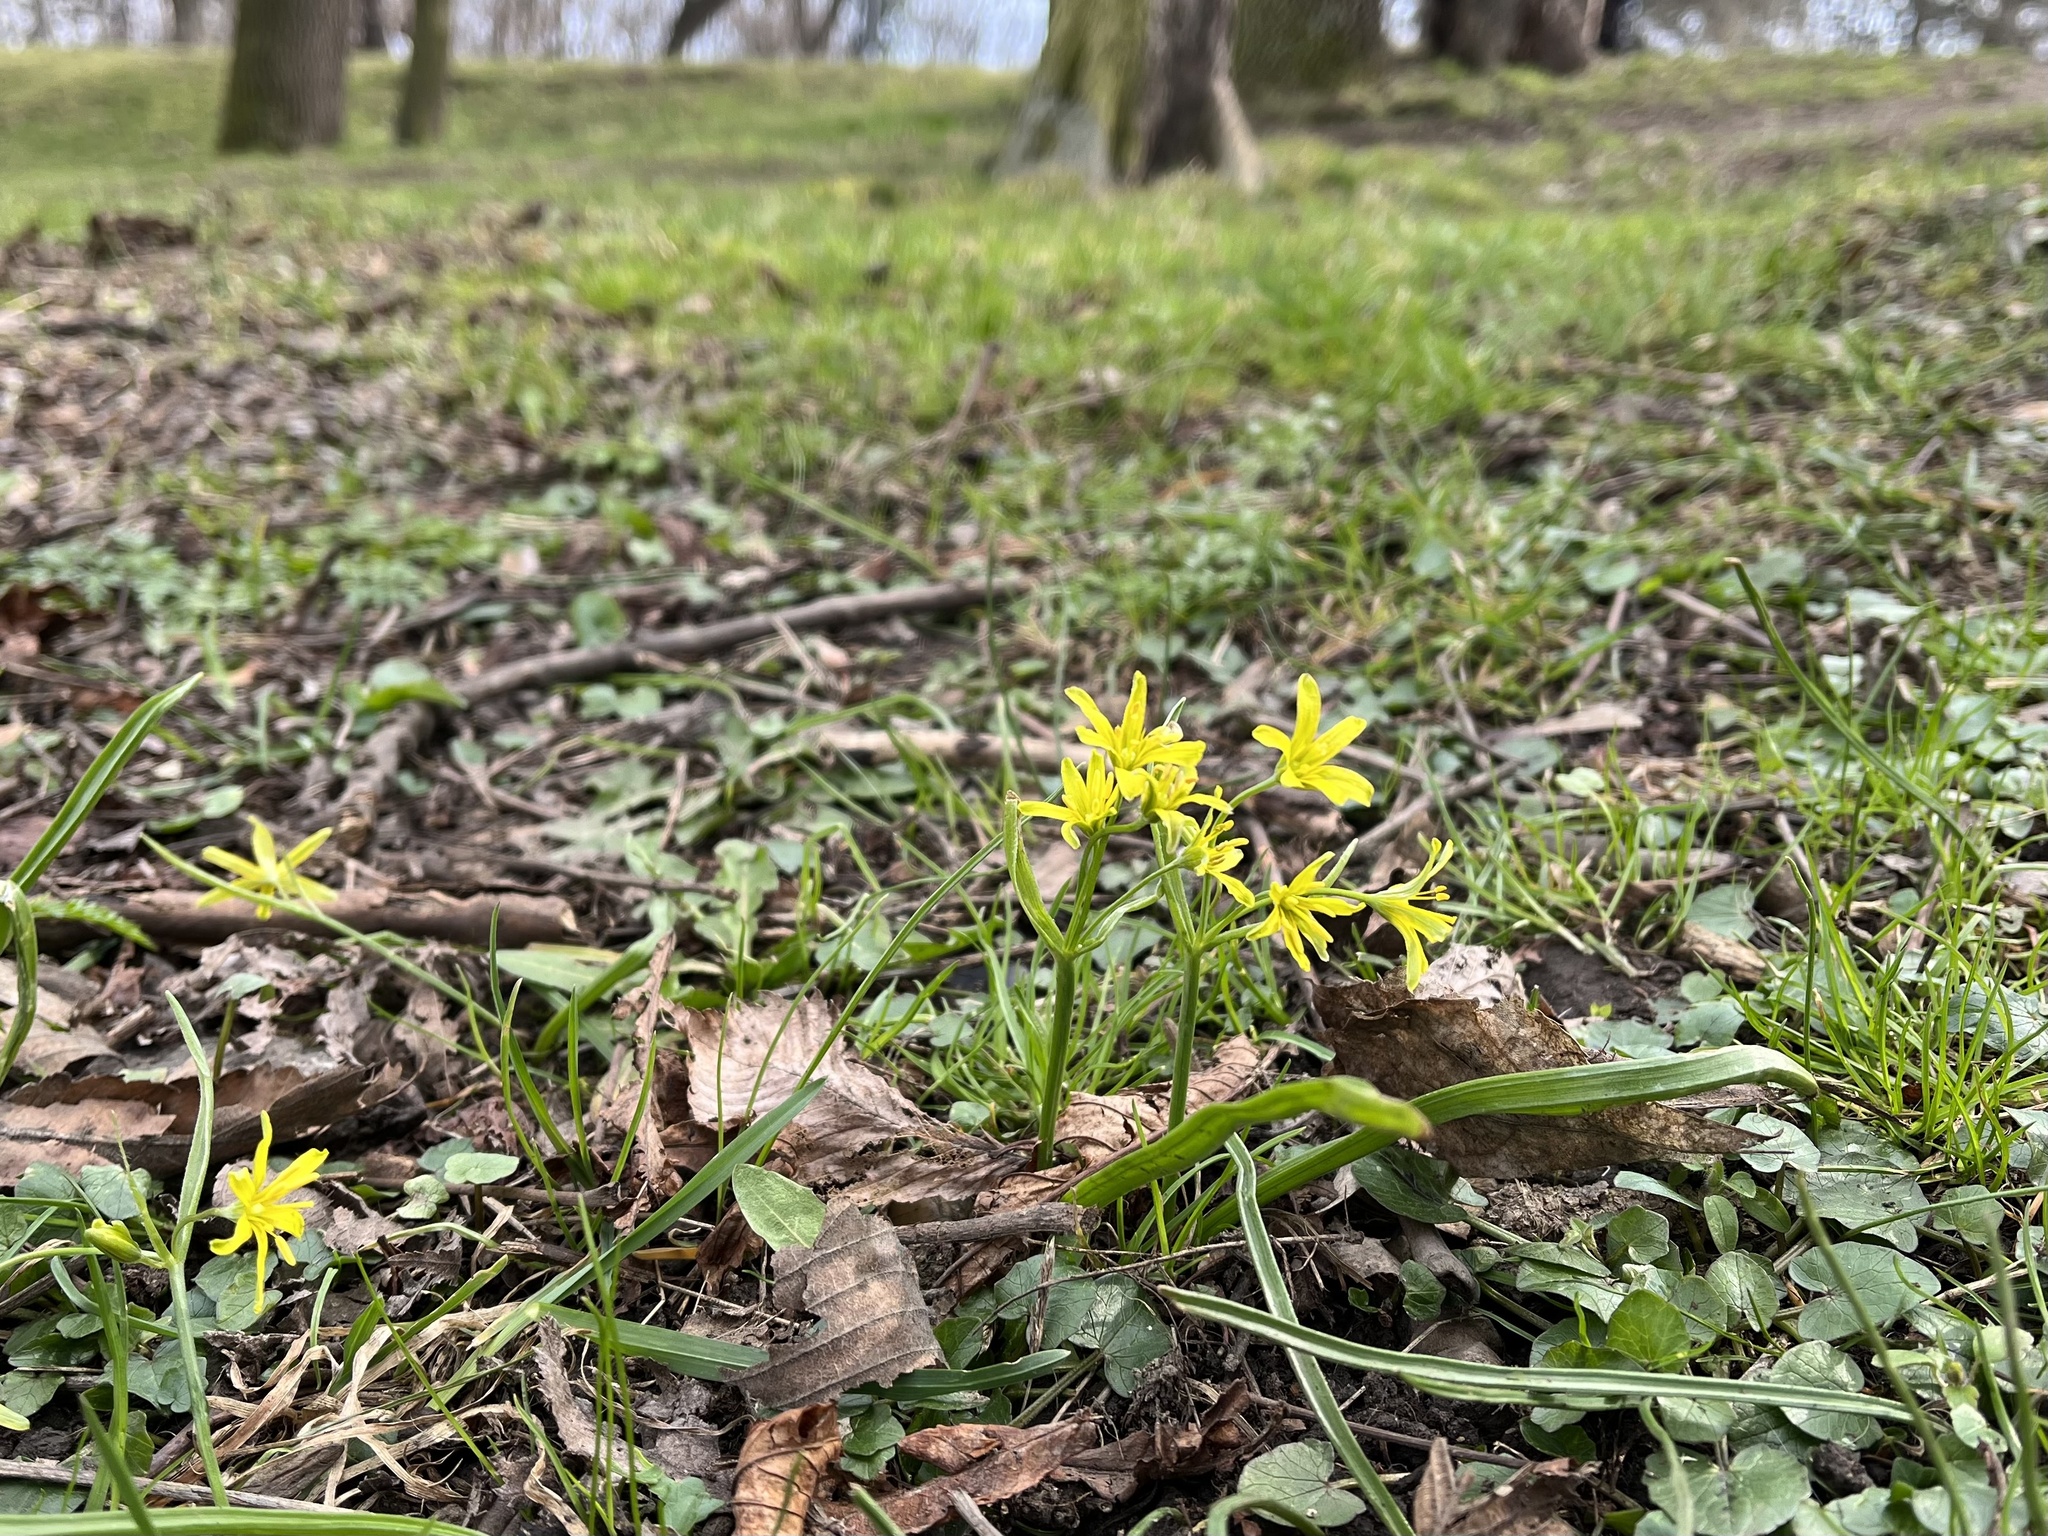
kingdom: Plantae
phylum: Tracheophyta
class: Liliopsida
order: Liliales
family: Liliaceae
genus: Gagea
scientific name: Gagea lutea
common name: Yellow star-of-bethlehem
